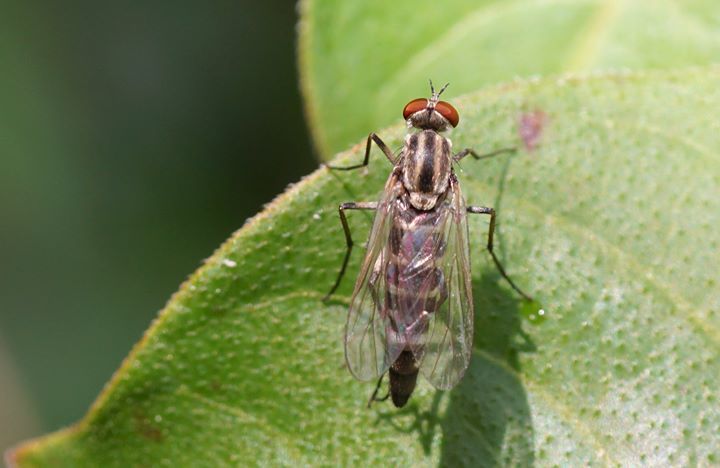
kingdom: Animalia
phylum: Arthropoda
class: Insecta
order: Diptera
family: Therevidae
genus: Penniverpa
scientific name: Penniverpa festina
